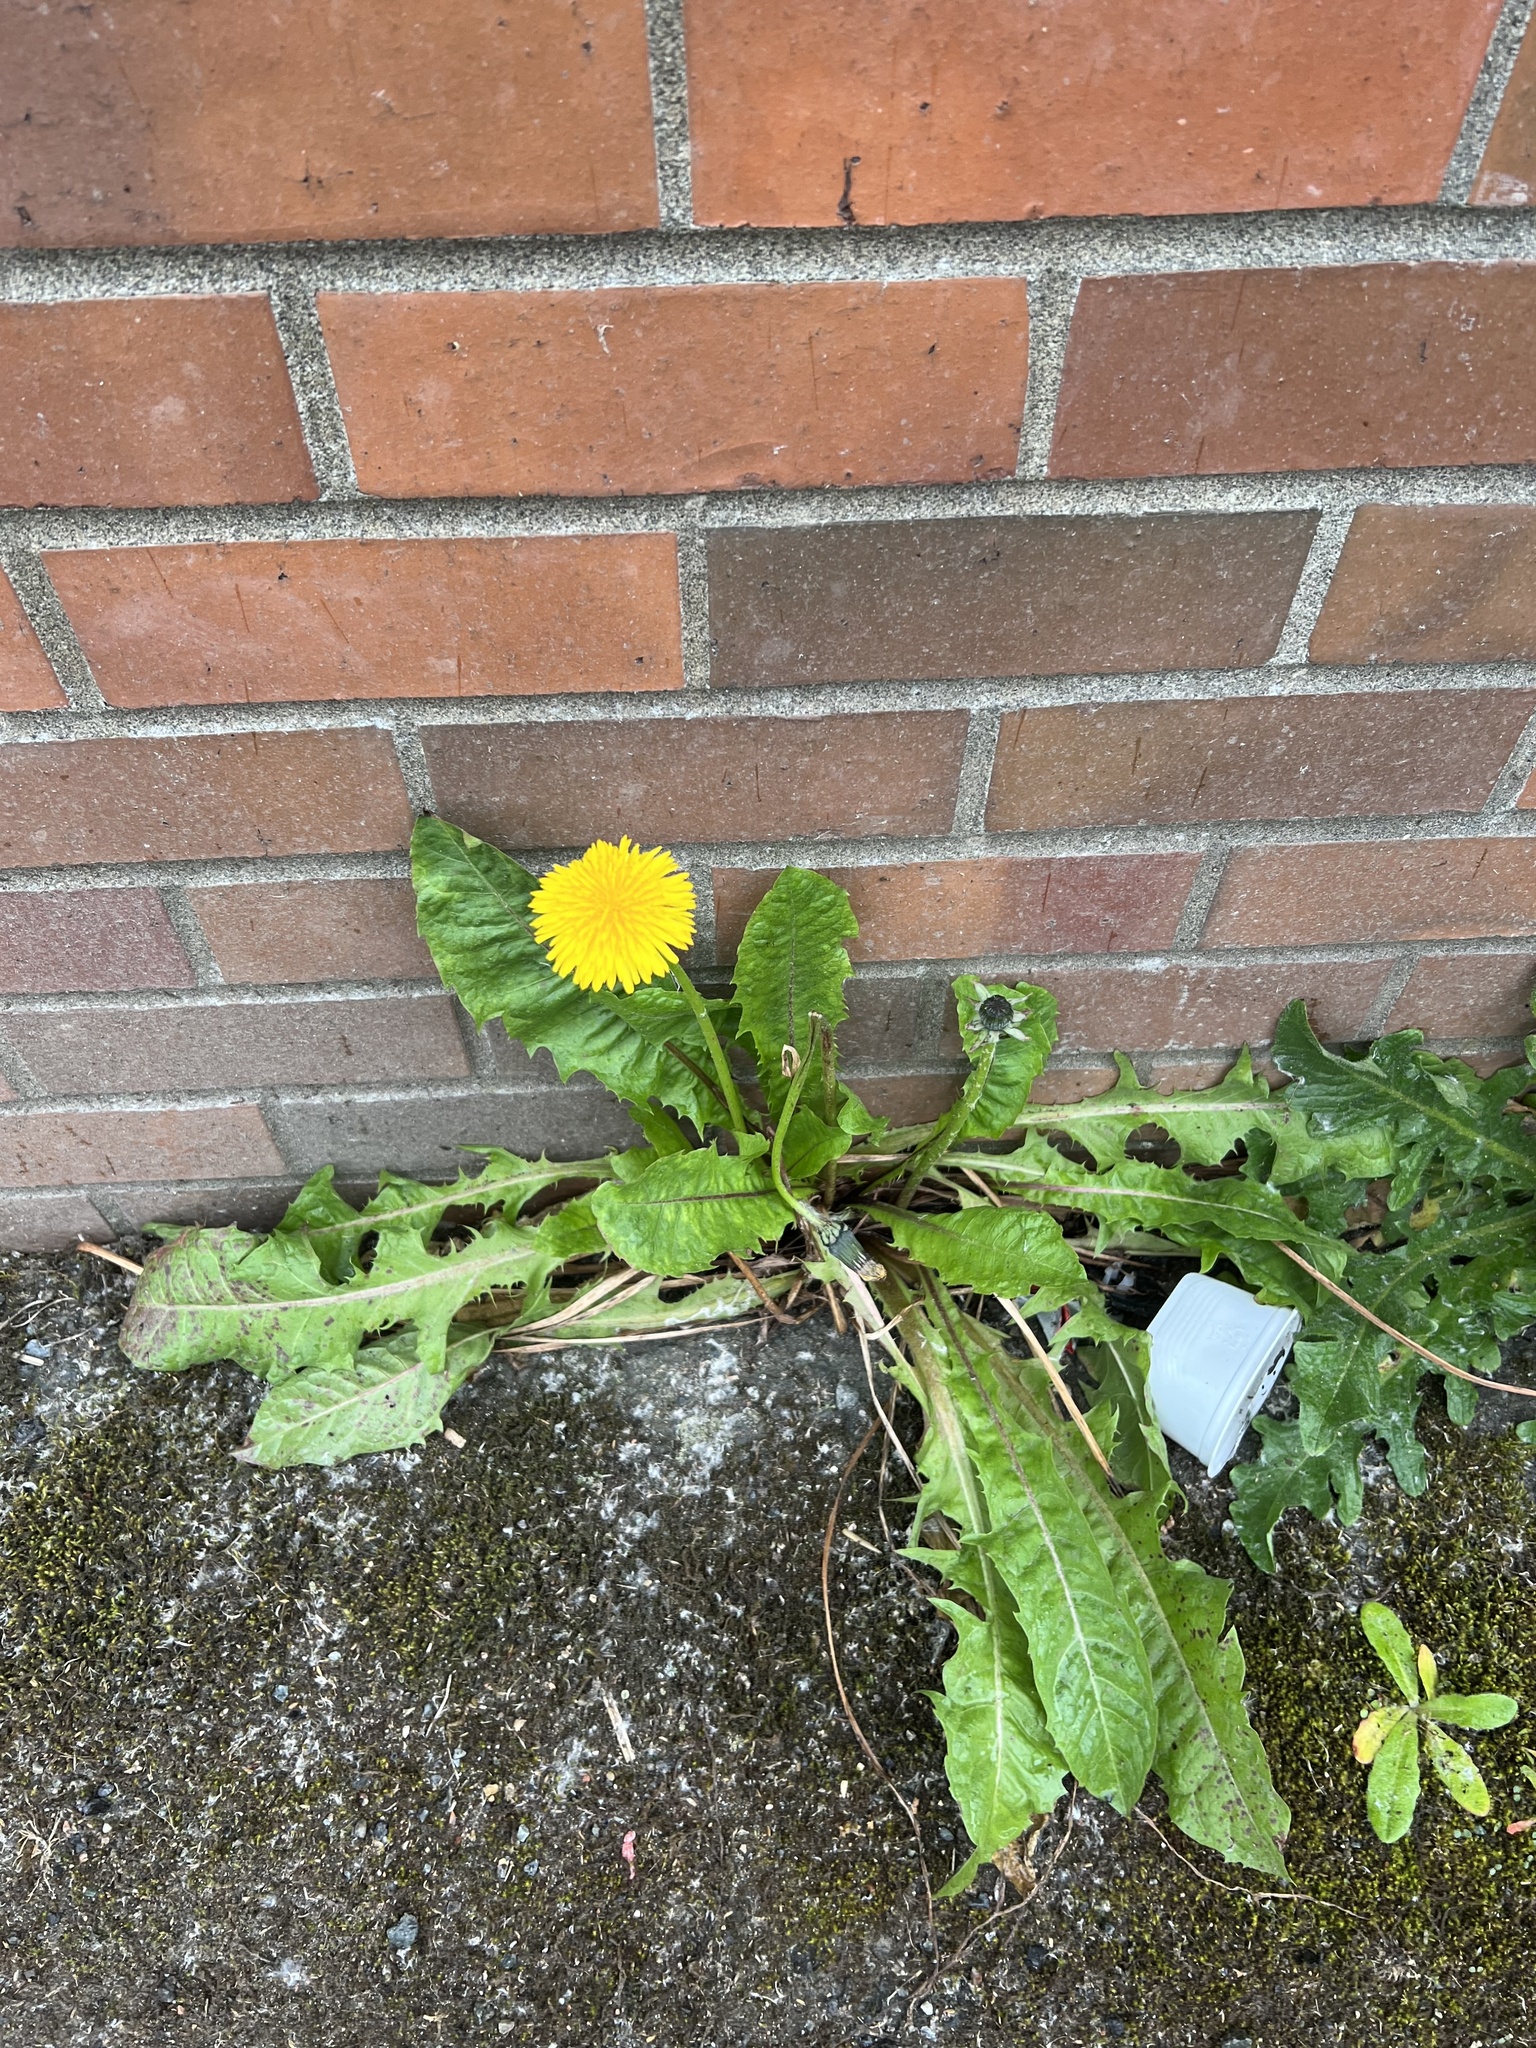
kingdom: Plantae
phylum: Tracheophyta
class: Magnoliopsida
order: Asterales
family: Asteraceae
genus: Taraxacum
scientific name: Taraxacum officinale
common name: Common dandelion
